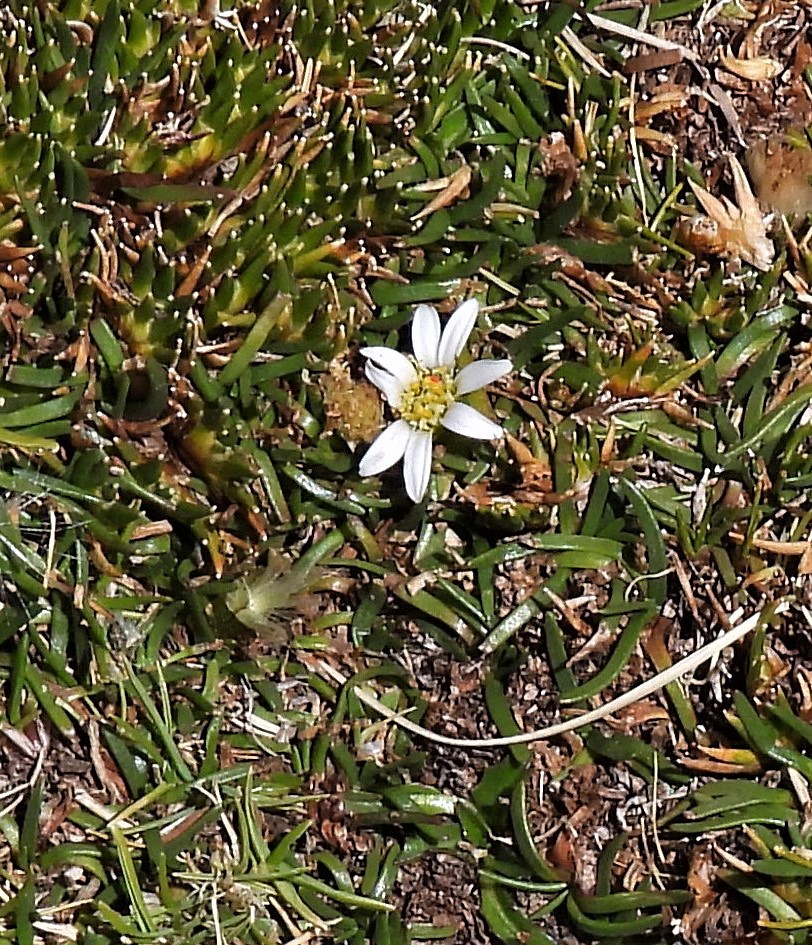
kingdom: Plantae
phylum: Tracheophyta
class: Magnoliopsida
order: Asterales
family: Asteraceae
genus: Rockhausenia
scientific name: Rockhausenia pygmaea
